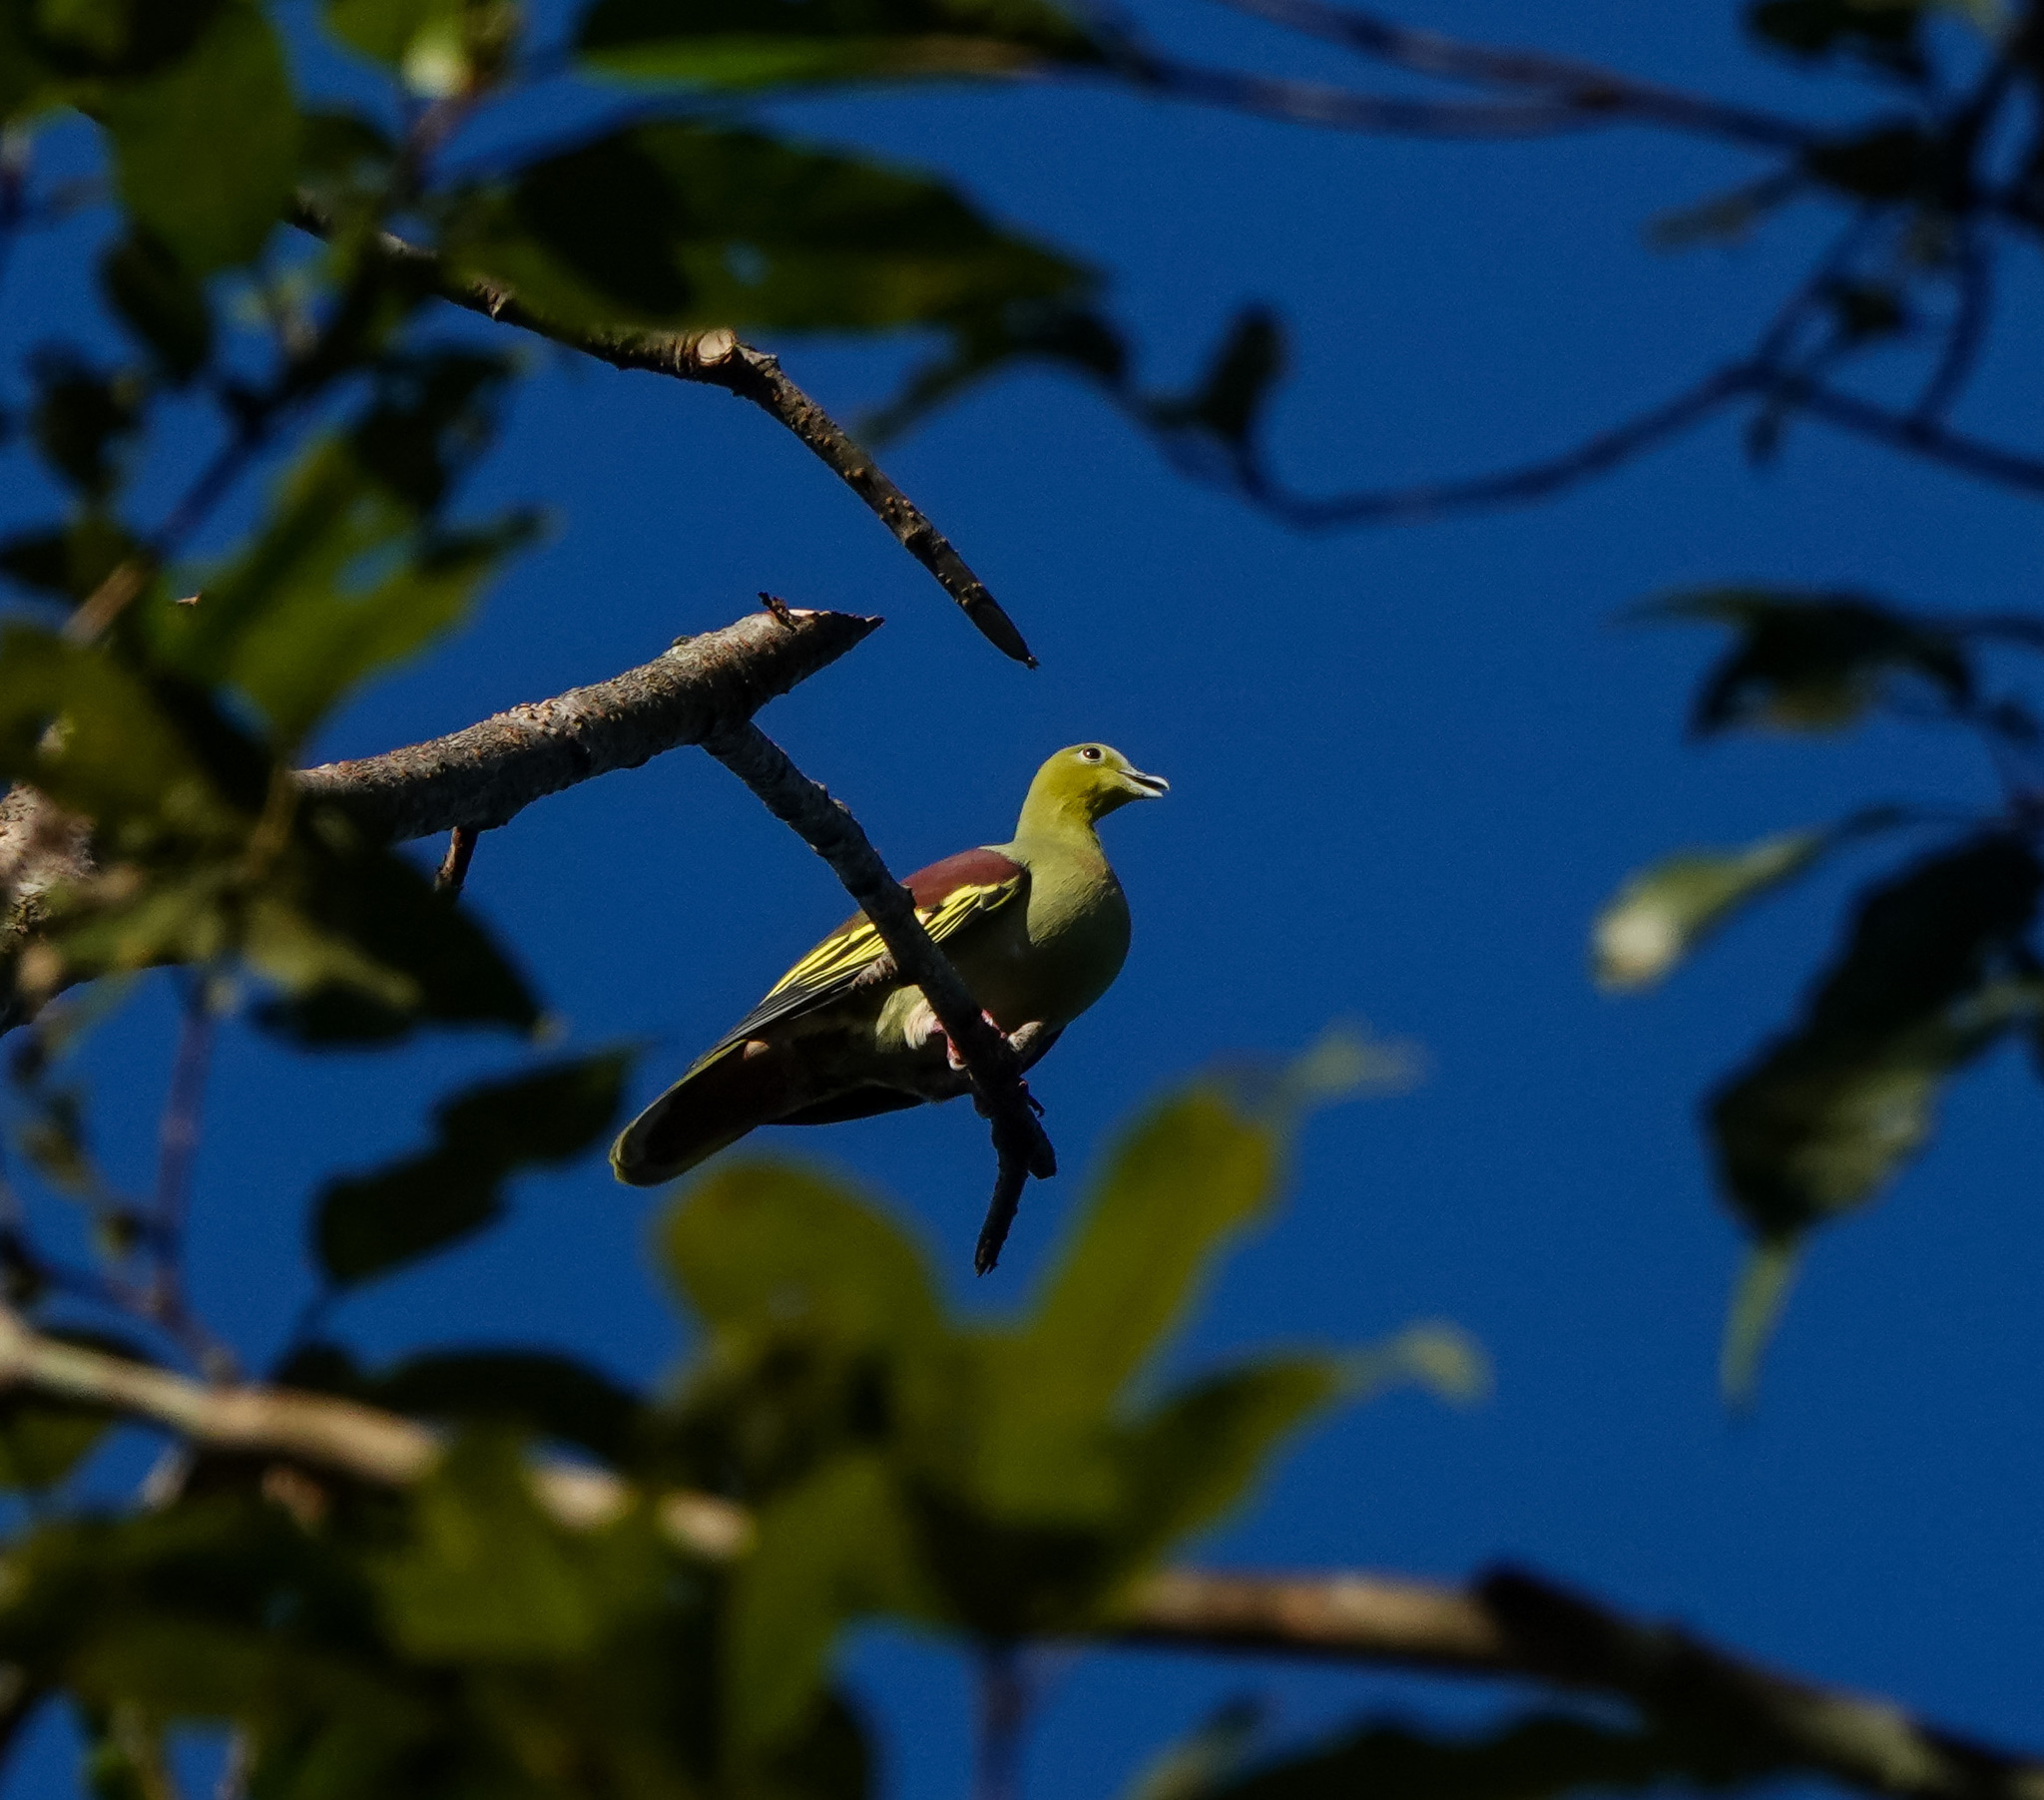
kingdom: Animalia
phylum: Chordata
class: Aves
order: Columbiformes
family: Columbidae
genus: Treron
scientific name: Treron phayrei
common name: Ashy-headed green pigeon
